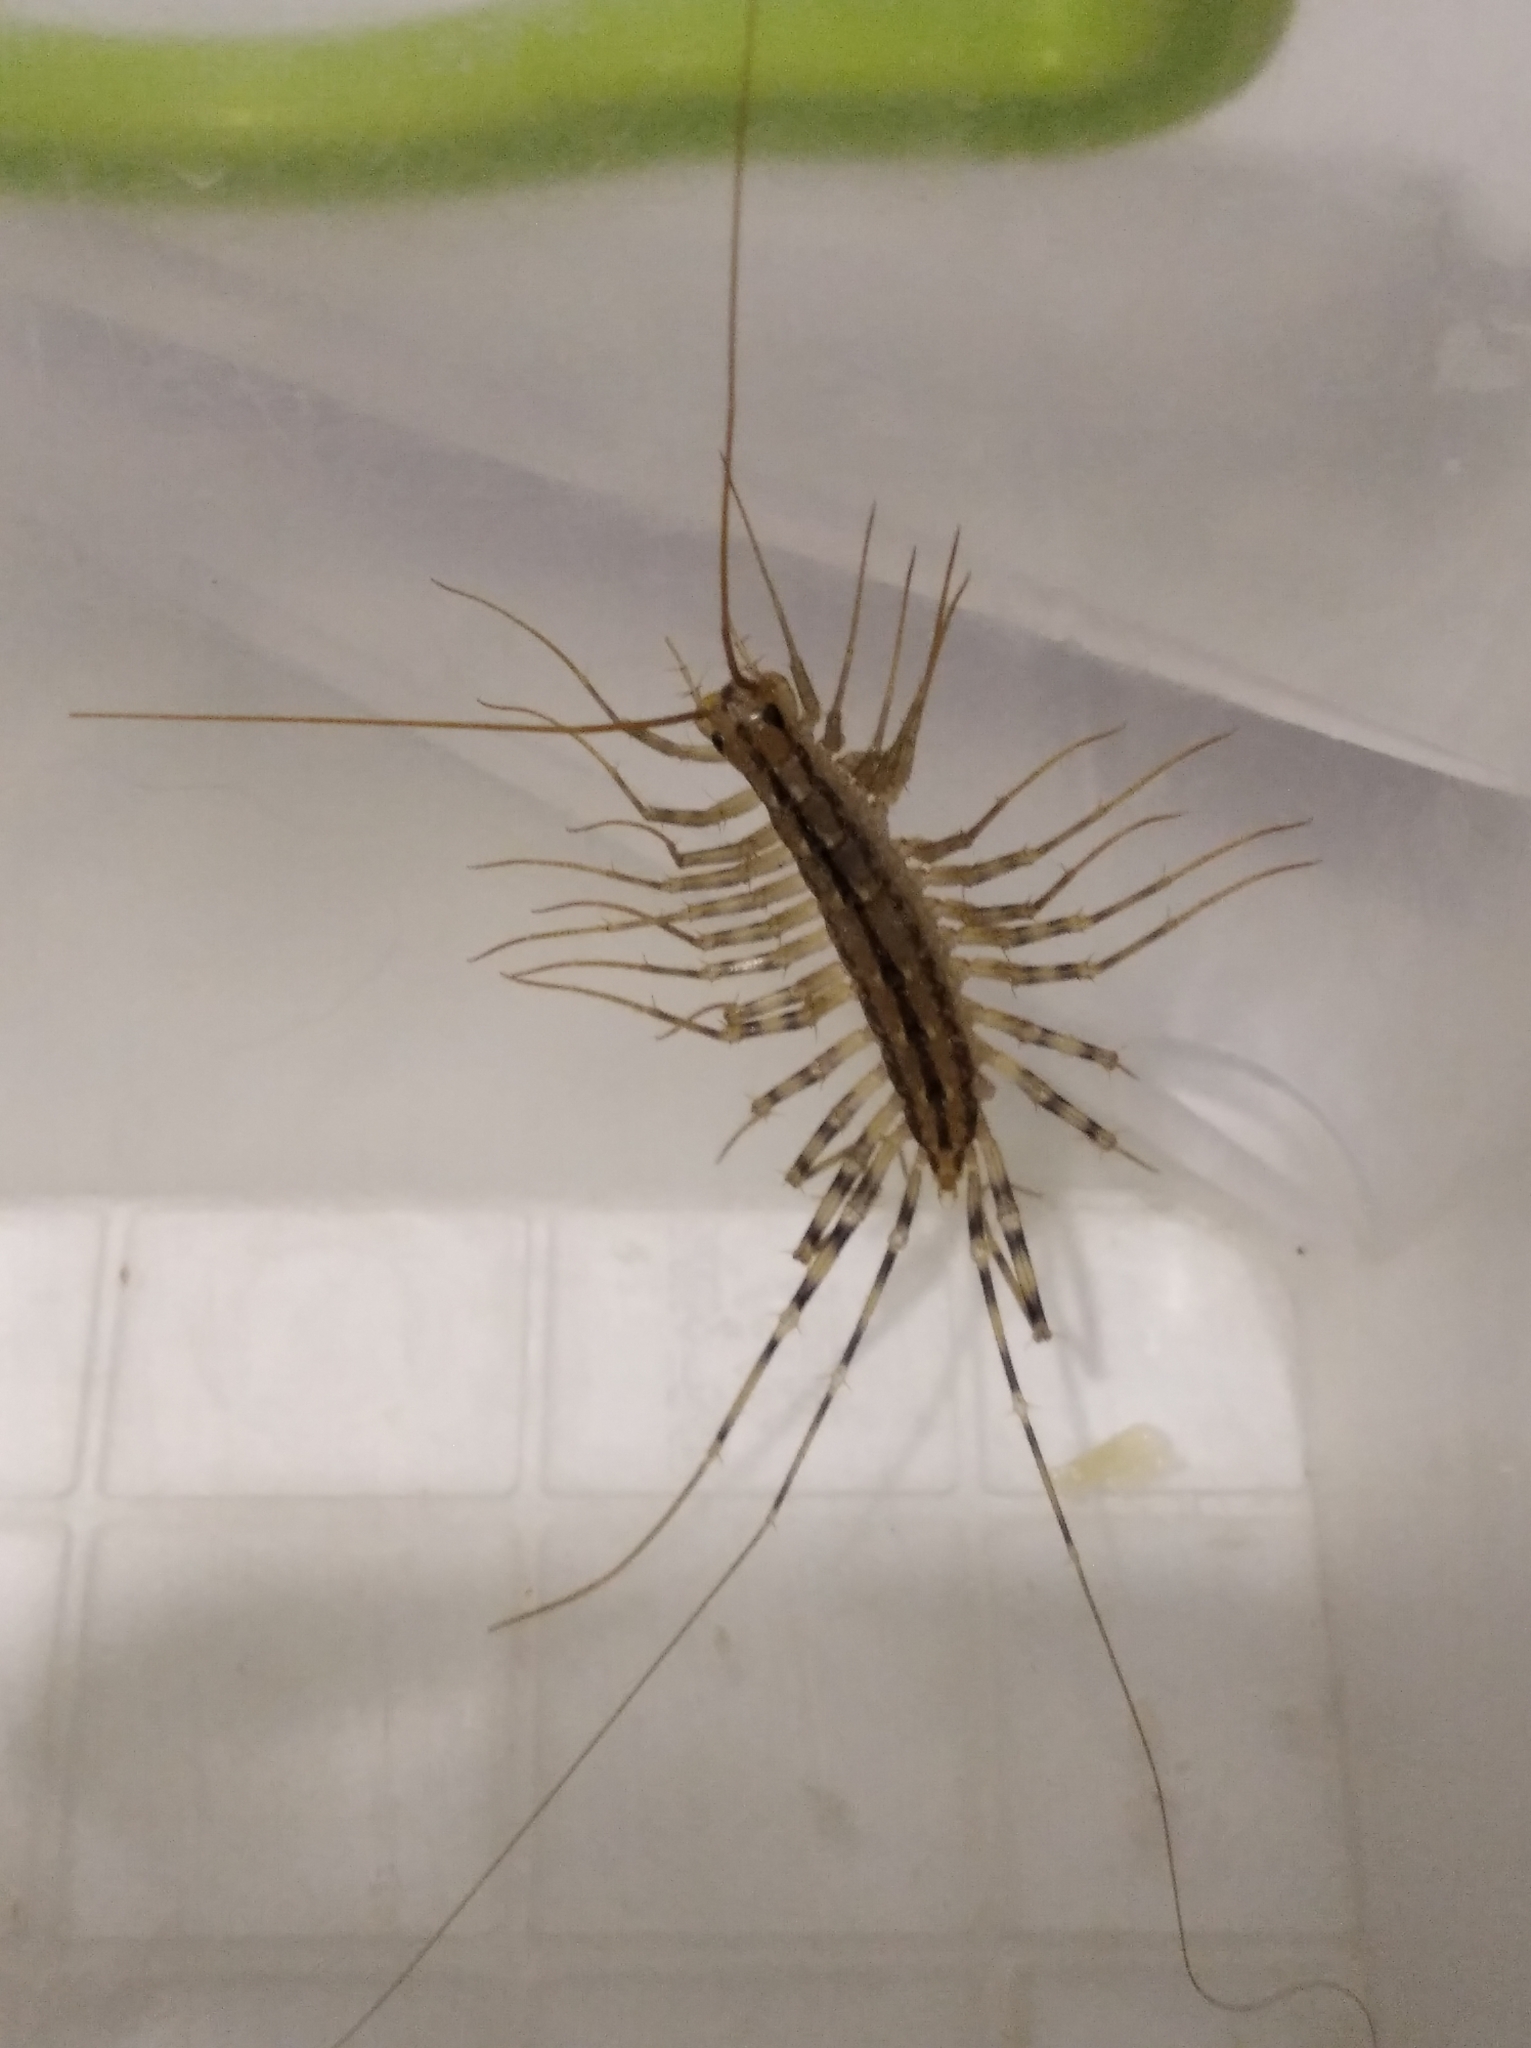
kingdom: Animalia
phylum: Arthropoda
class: Chilopoda
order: Scutigeromorpha
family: Scutigeridae
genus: Scutigera
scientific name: Scutigera coleoptrata
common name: House centipede
